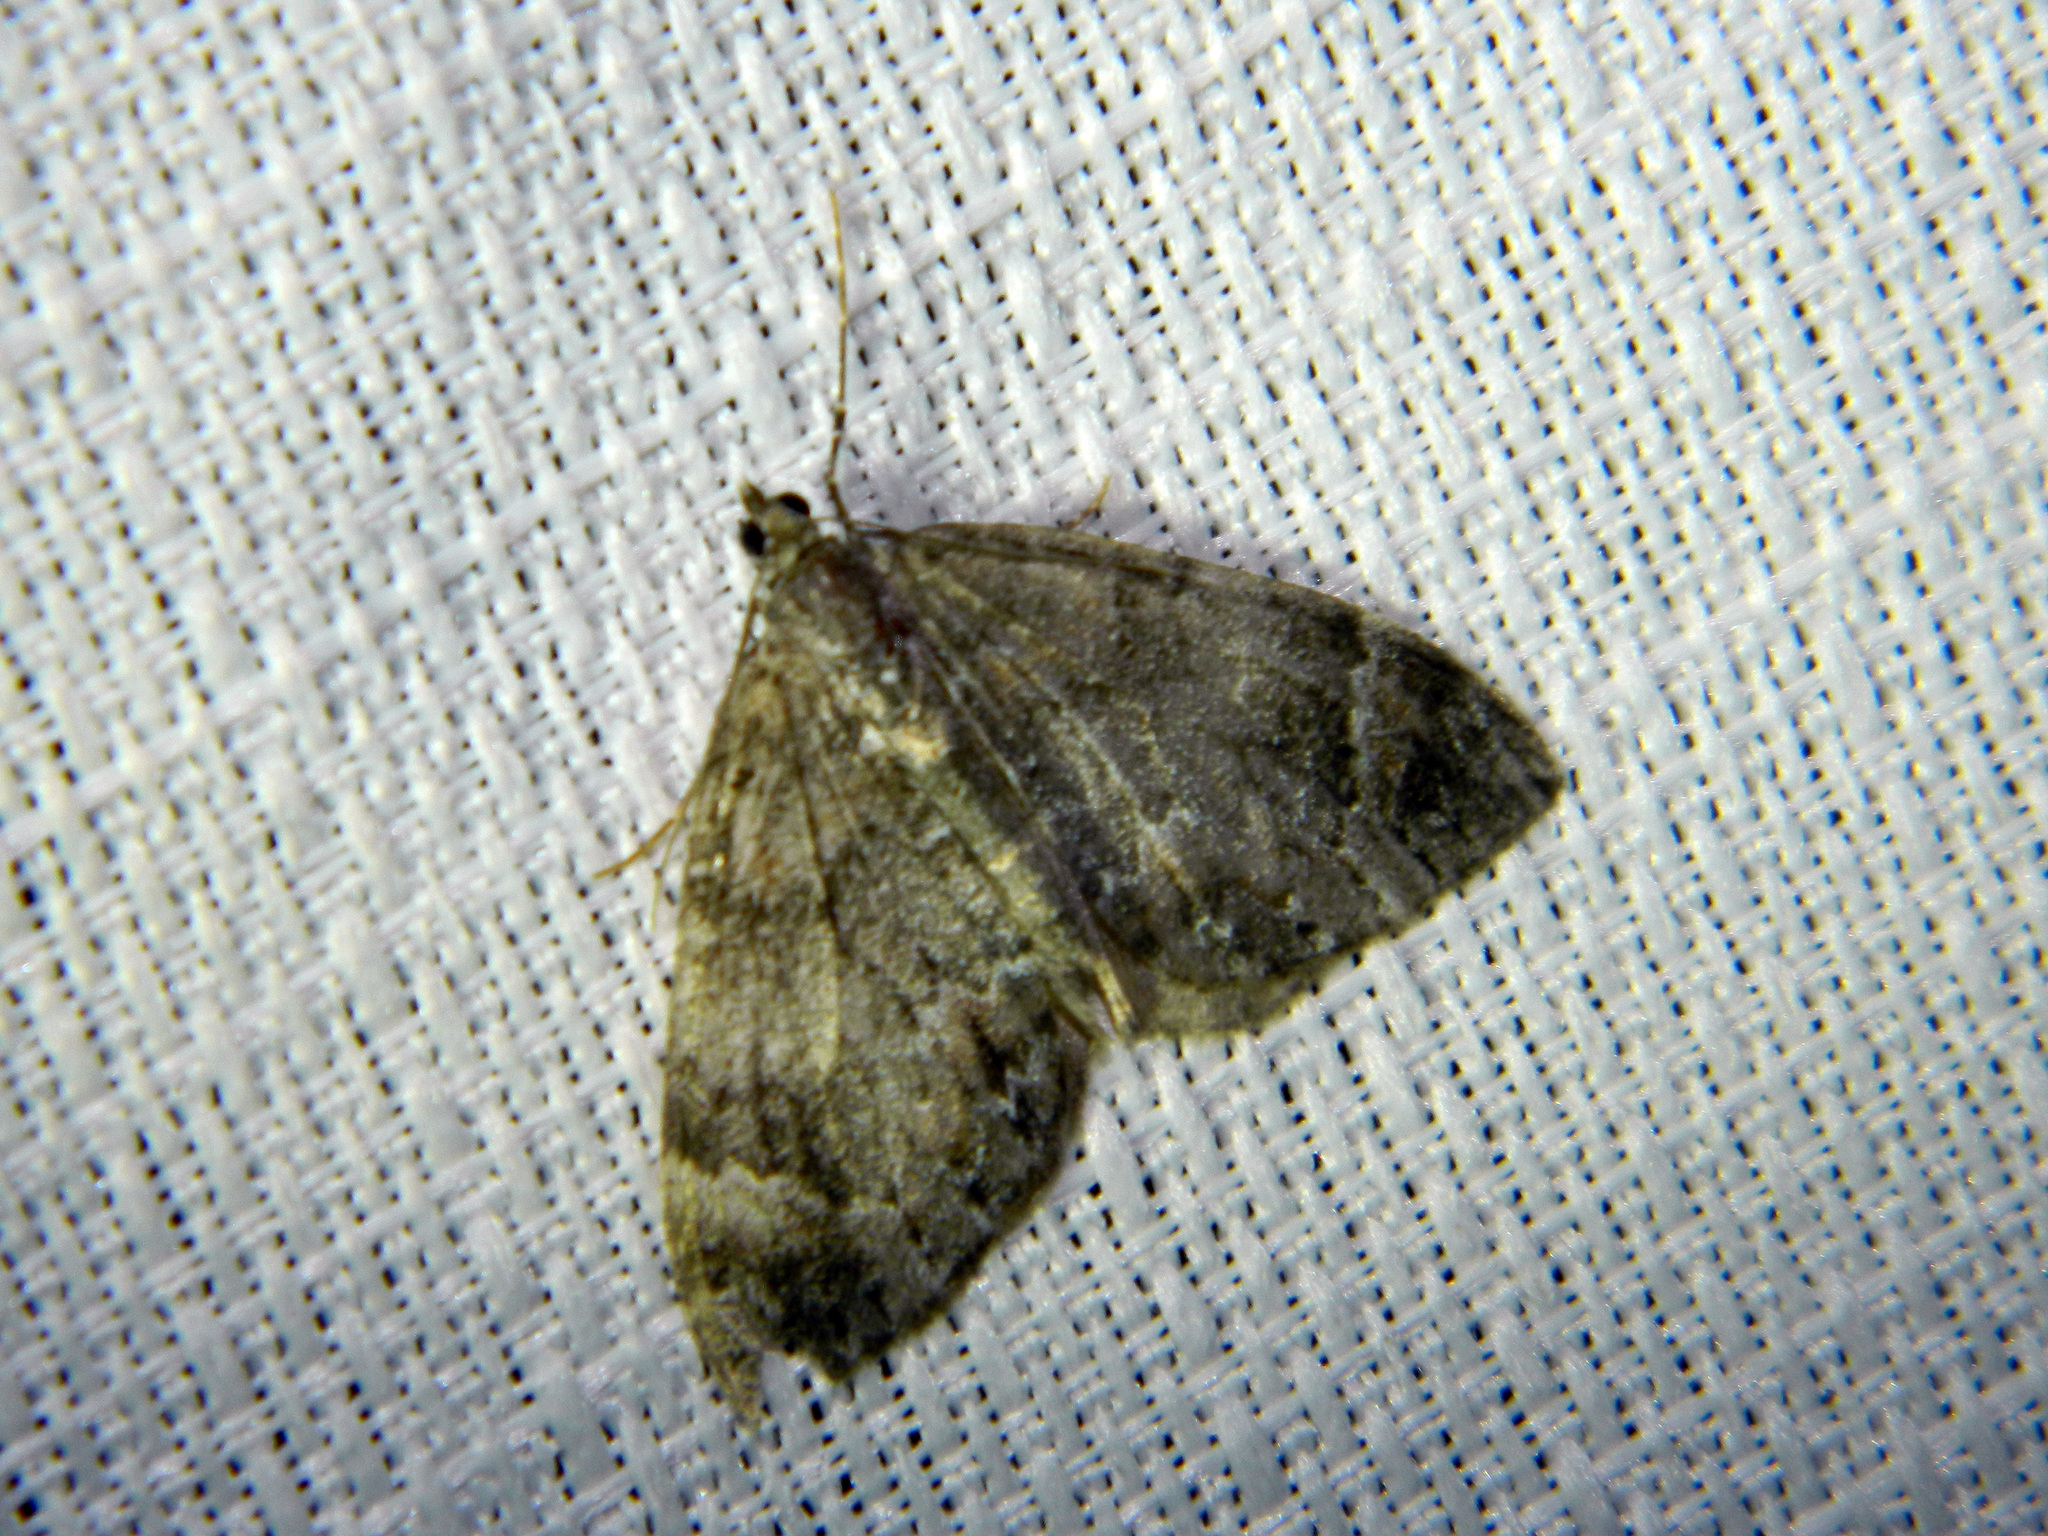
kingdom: Animalia
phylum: Arthropoda
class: Insecta
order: Lepidoptera
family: Geometridae
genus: Dysstroma
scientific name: Dysstroma citrata
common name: Dark marbled carpet
